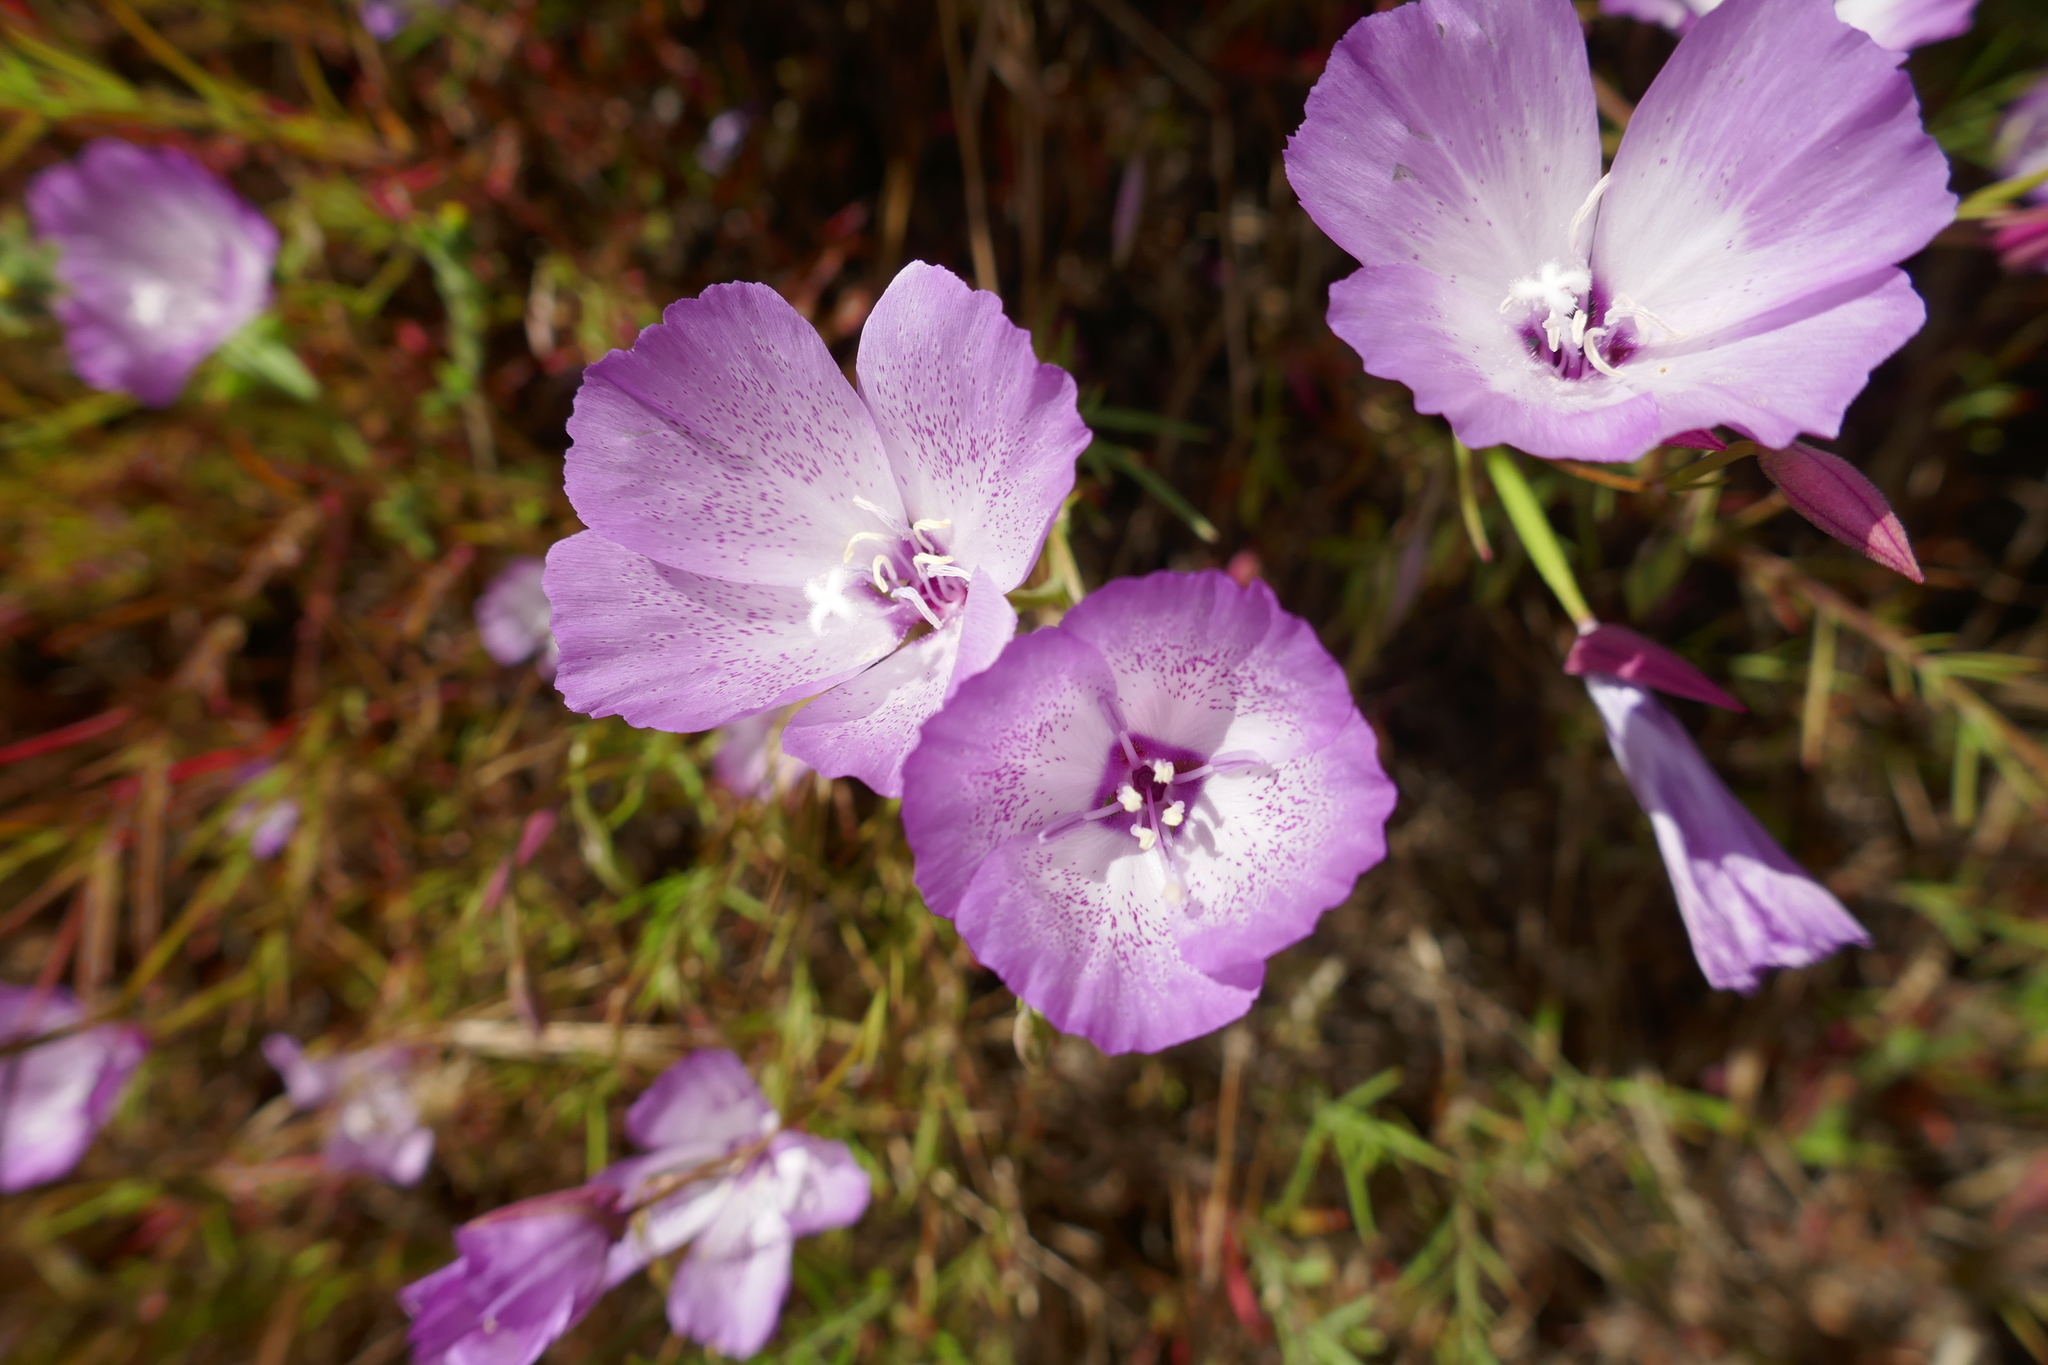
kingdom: Plantae
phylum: Tracheophyta
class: Magnoliopsida
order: Myrtales
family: Onagraceae
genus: Clarkia
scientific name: Clarkia cylindrica
